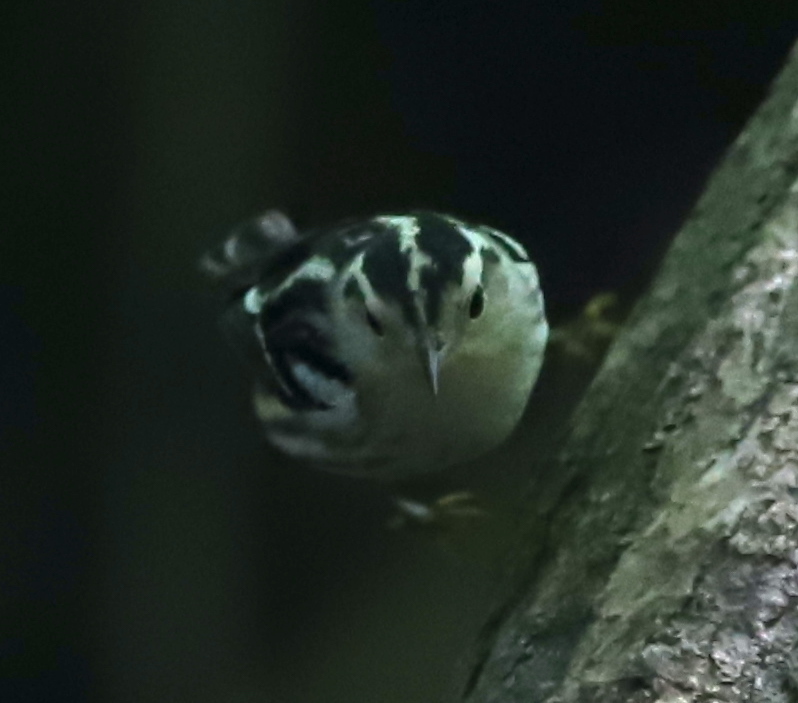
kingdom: Animalia
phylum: Chordata
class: Aves
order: Passeriformes
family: Parulidae
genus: Mniotilta
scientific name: Mniotilta varia
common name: Black-and-white warbler
